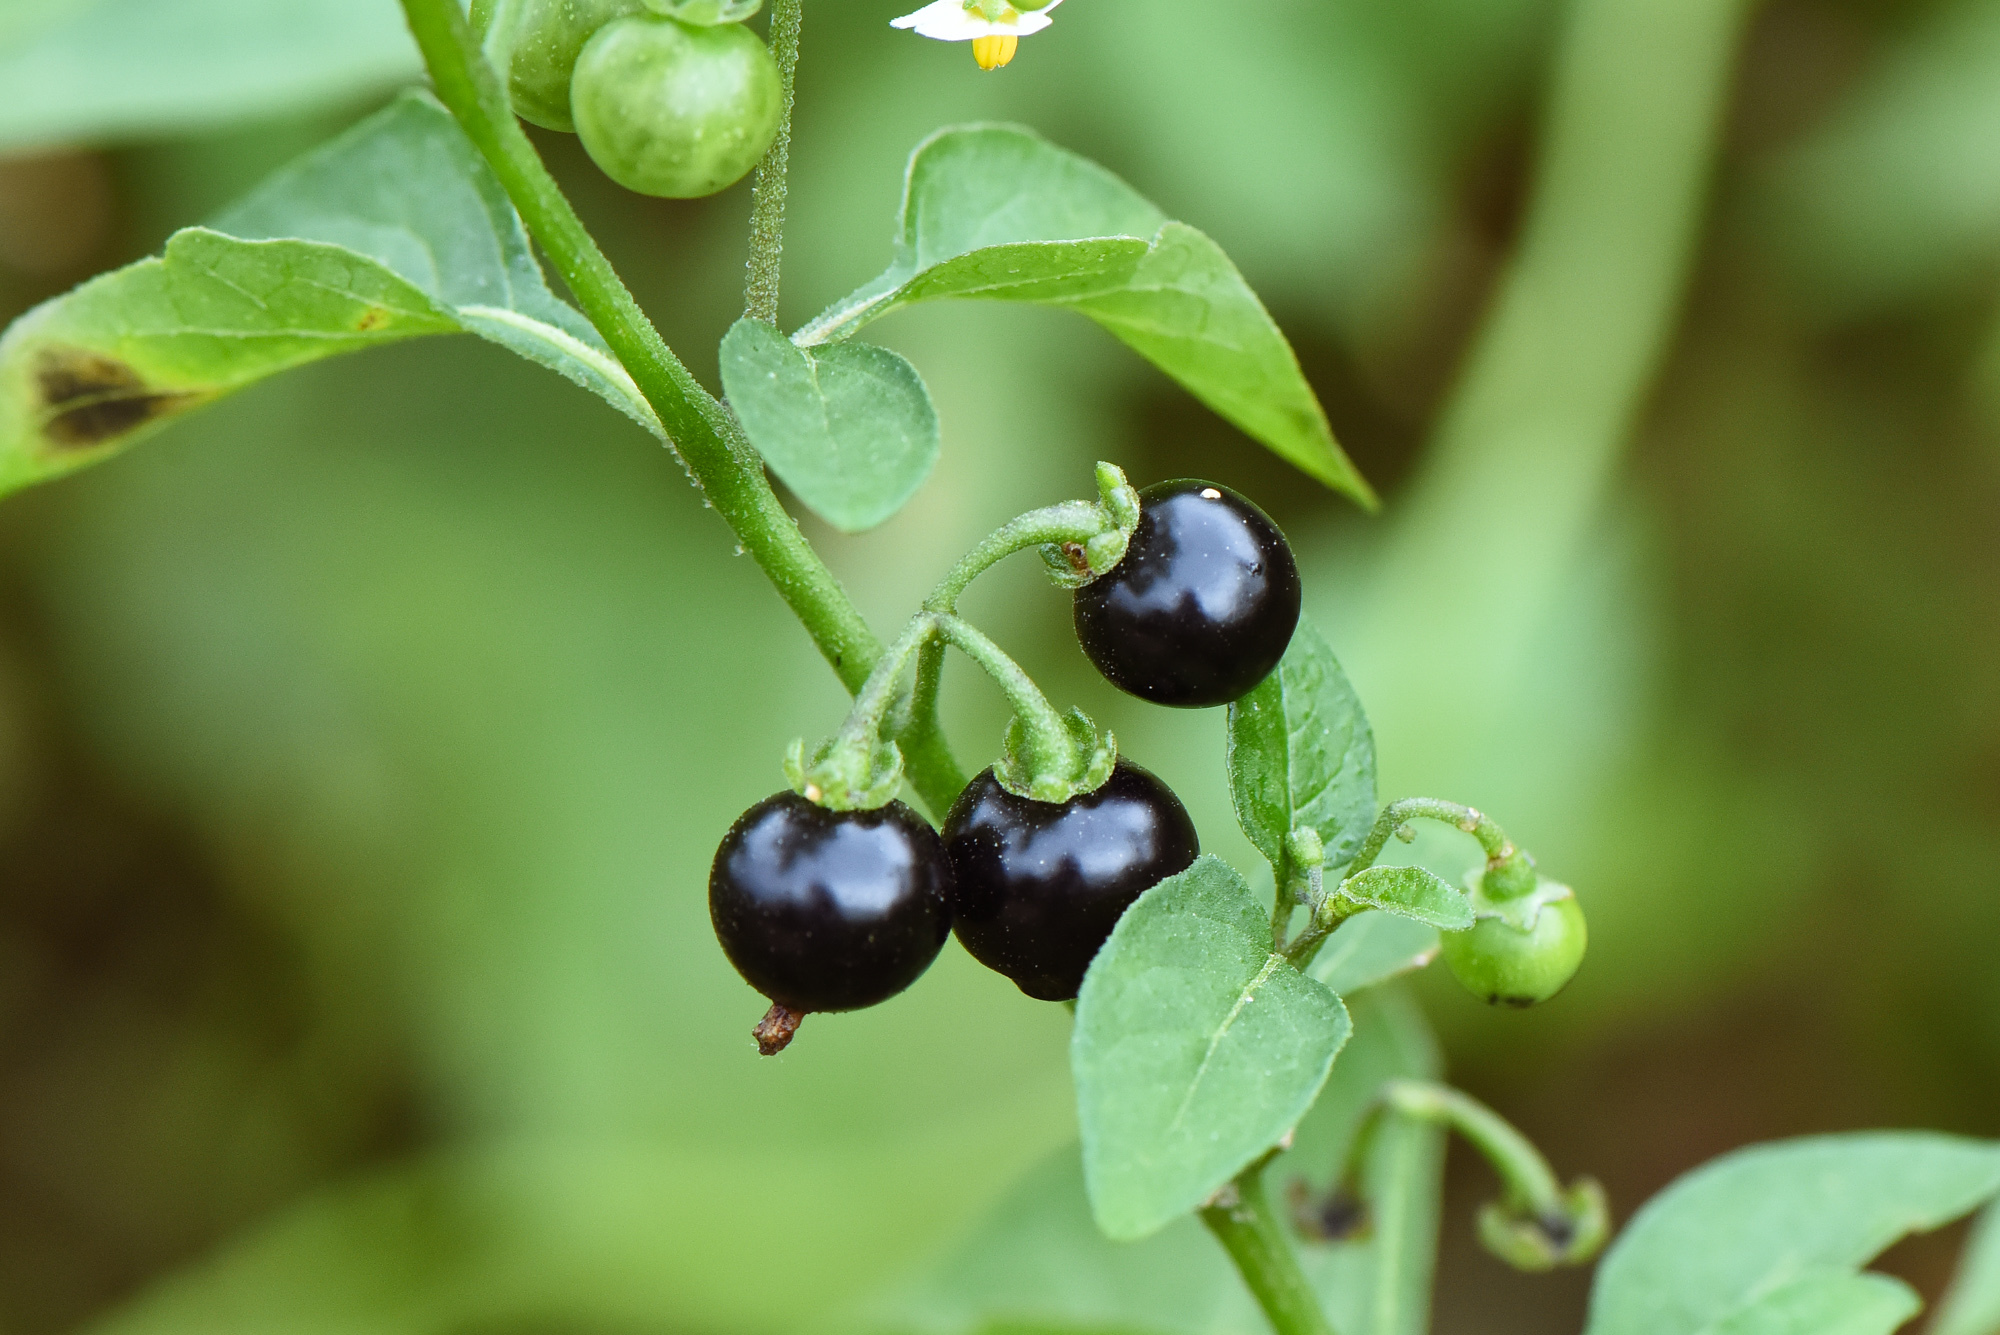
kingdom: Plantae
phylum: Tracheophyta
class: Magnoliopsida
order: Solanales
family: Solanaceae
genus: Solanum
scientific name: Solanum americanum
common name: American black nightshade
